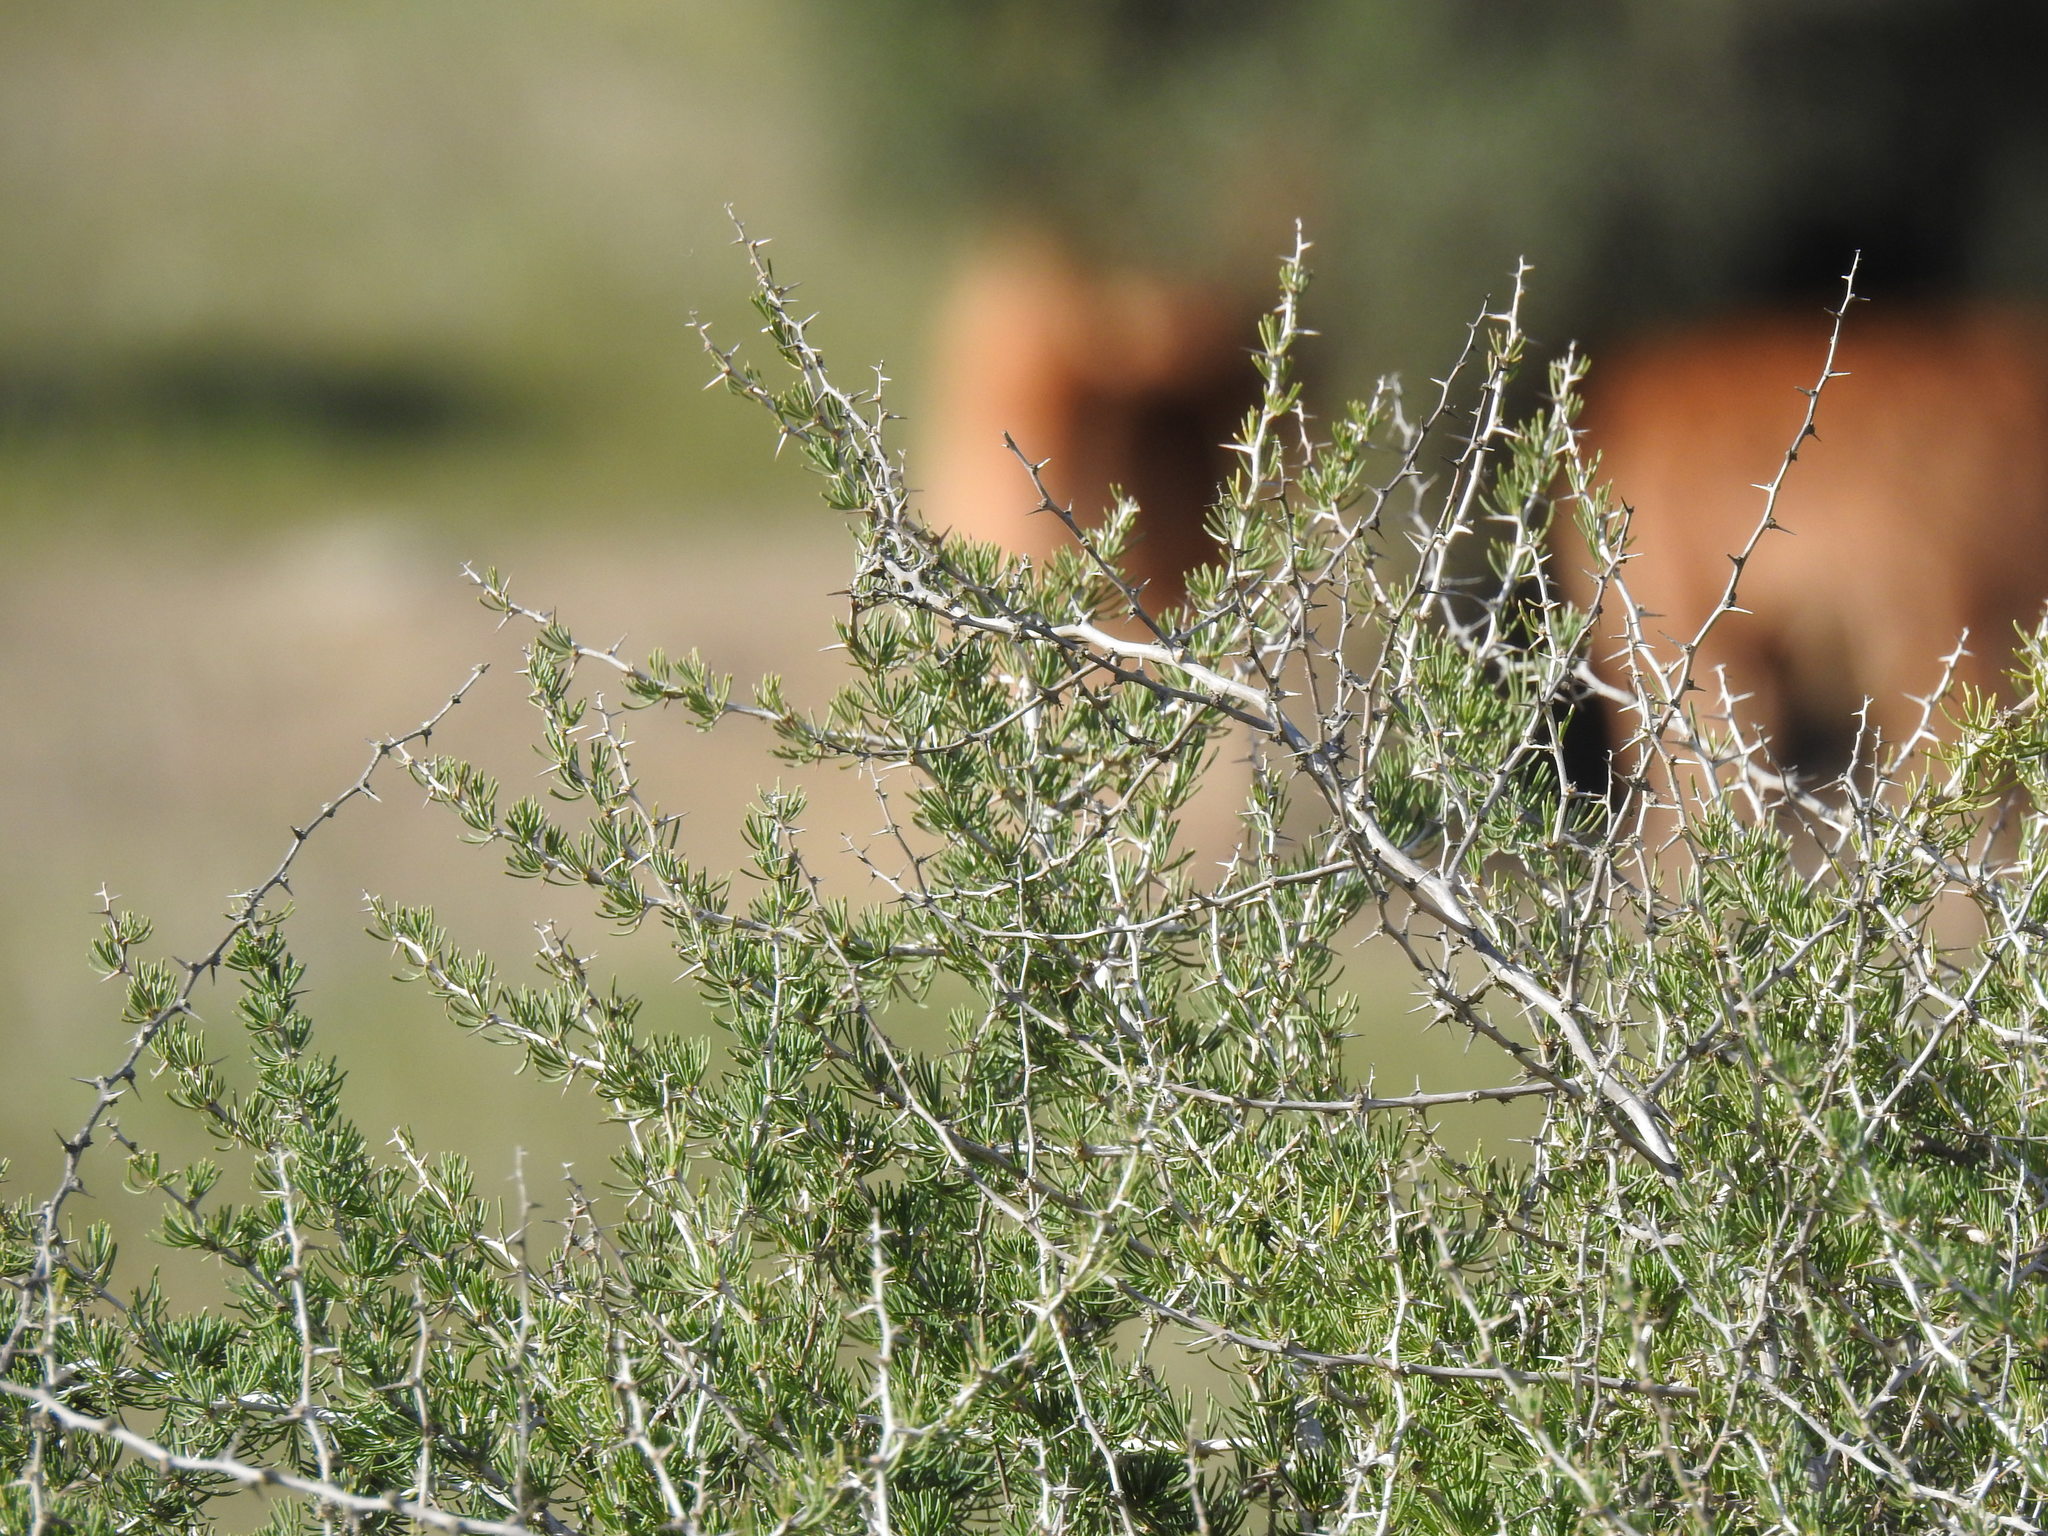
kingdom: Plantae
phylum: Tracheophyta
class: Liliopsida
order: Asparagales
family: Asparagaceae
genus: Asparagus
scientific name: Asparagus albus
